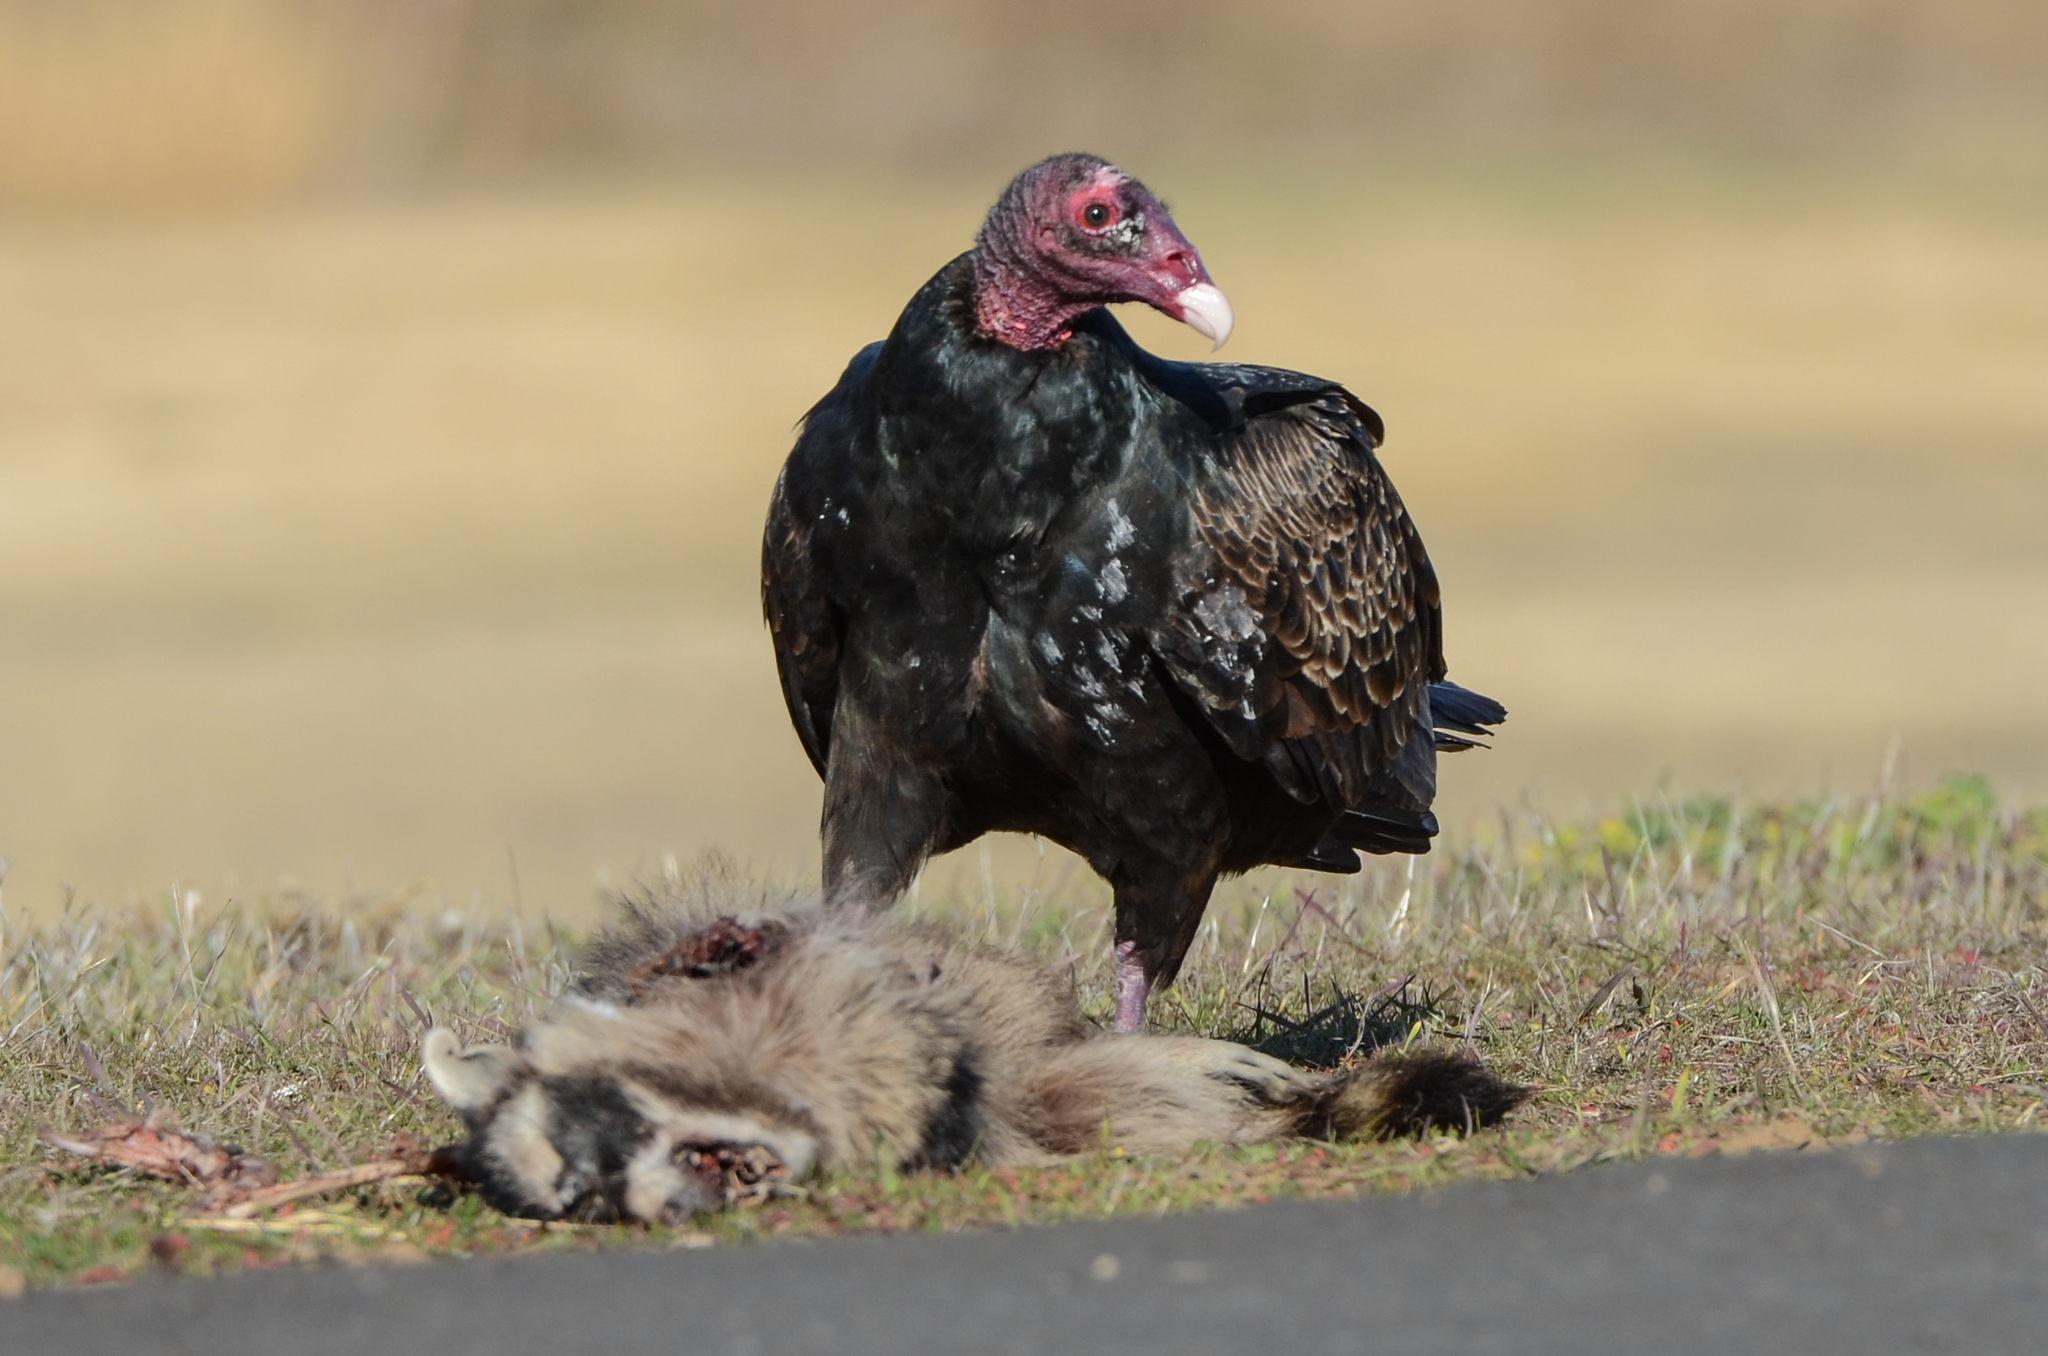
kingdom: Animalia
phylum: Chordata
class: Aves
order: Accipitriformes
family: Cathartidae
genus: Cathartes
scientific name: Cathartes aura
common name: Turkey vulture
